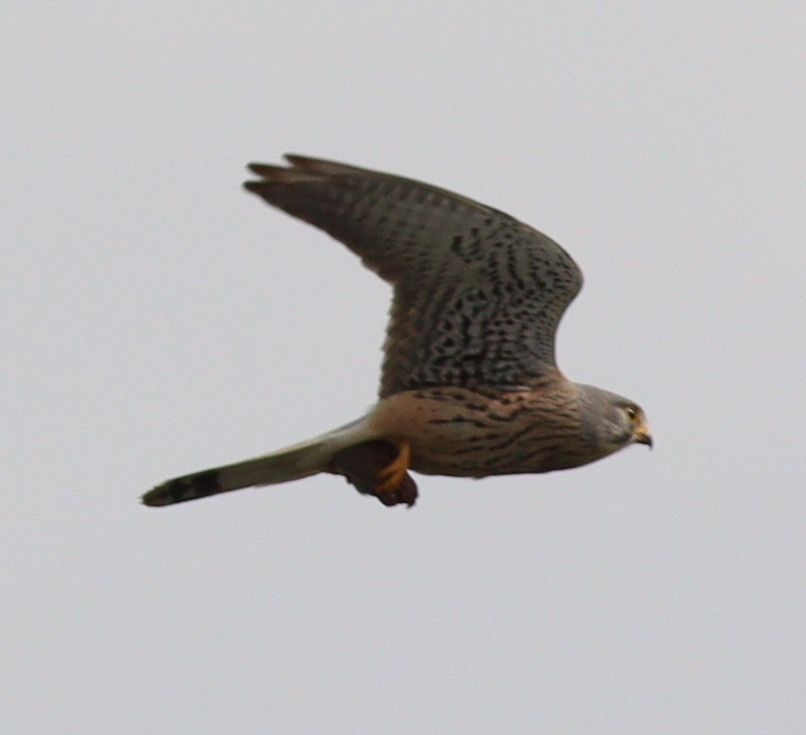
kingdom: Animalia
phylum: Chordata
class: Aves
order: Falconiformes
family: Falconidae
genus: Falco
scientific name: Falco tinnunculus
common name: Common kestrel
